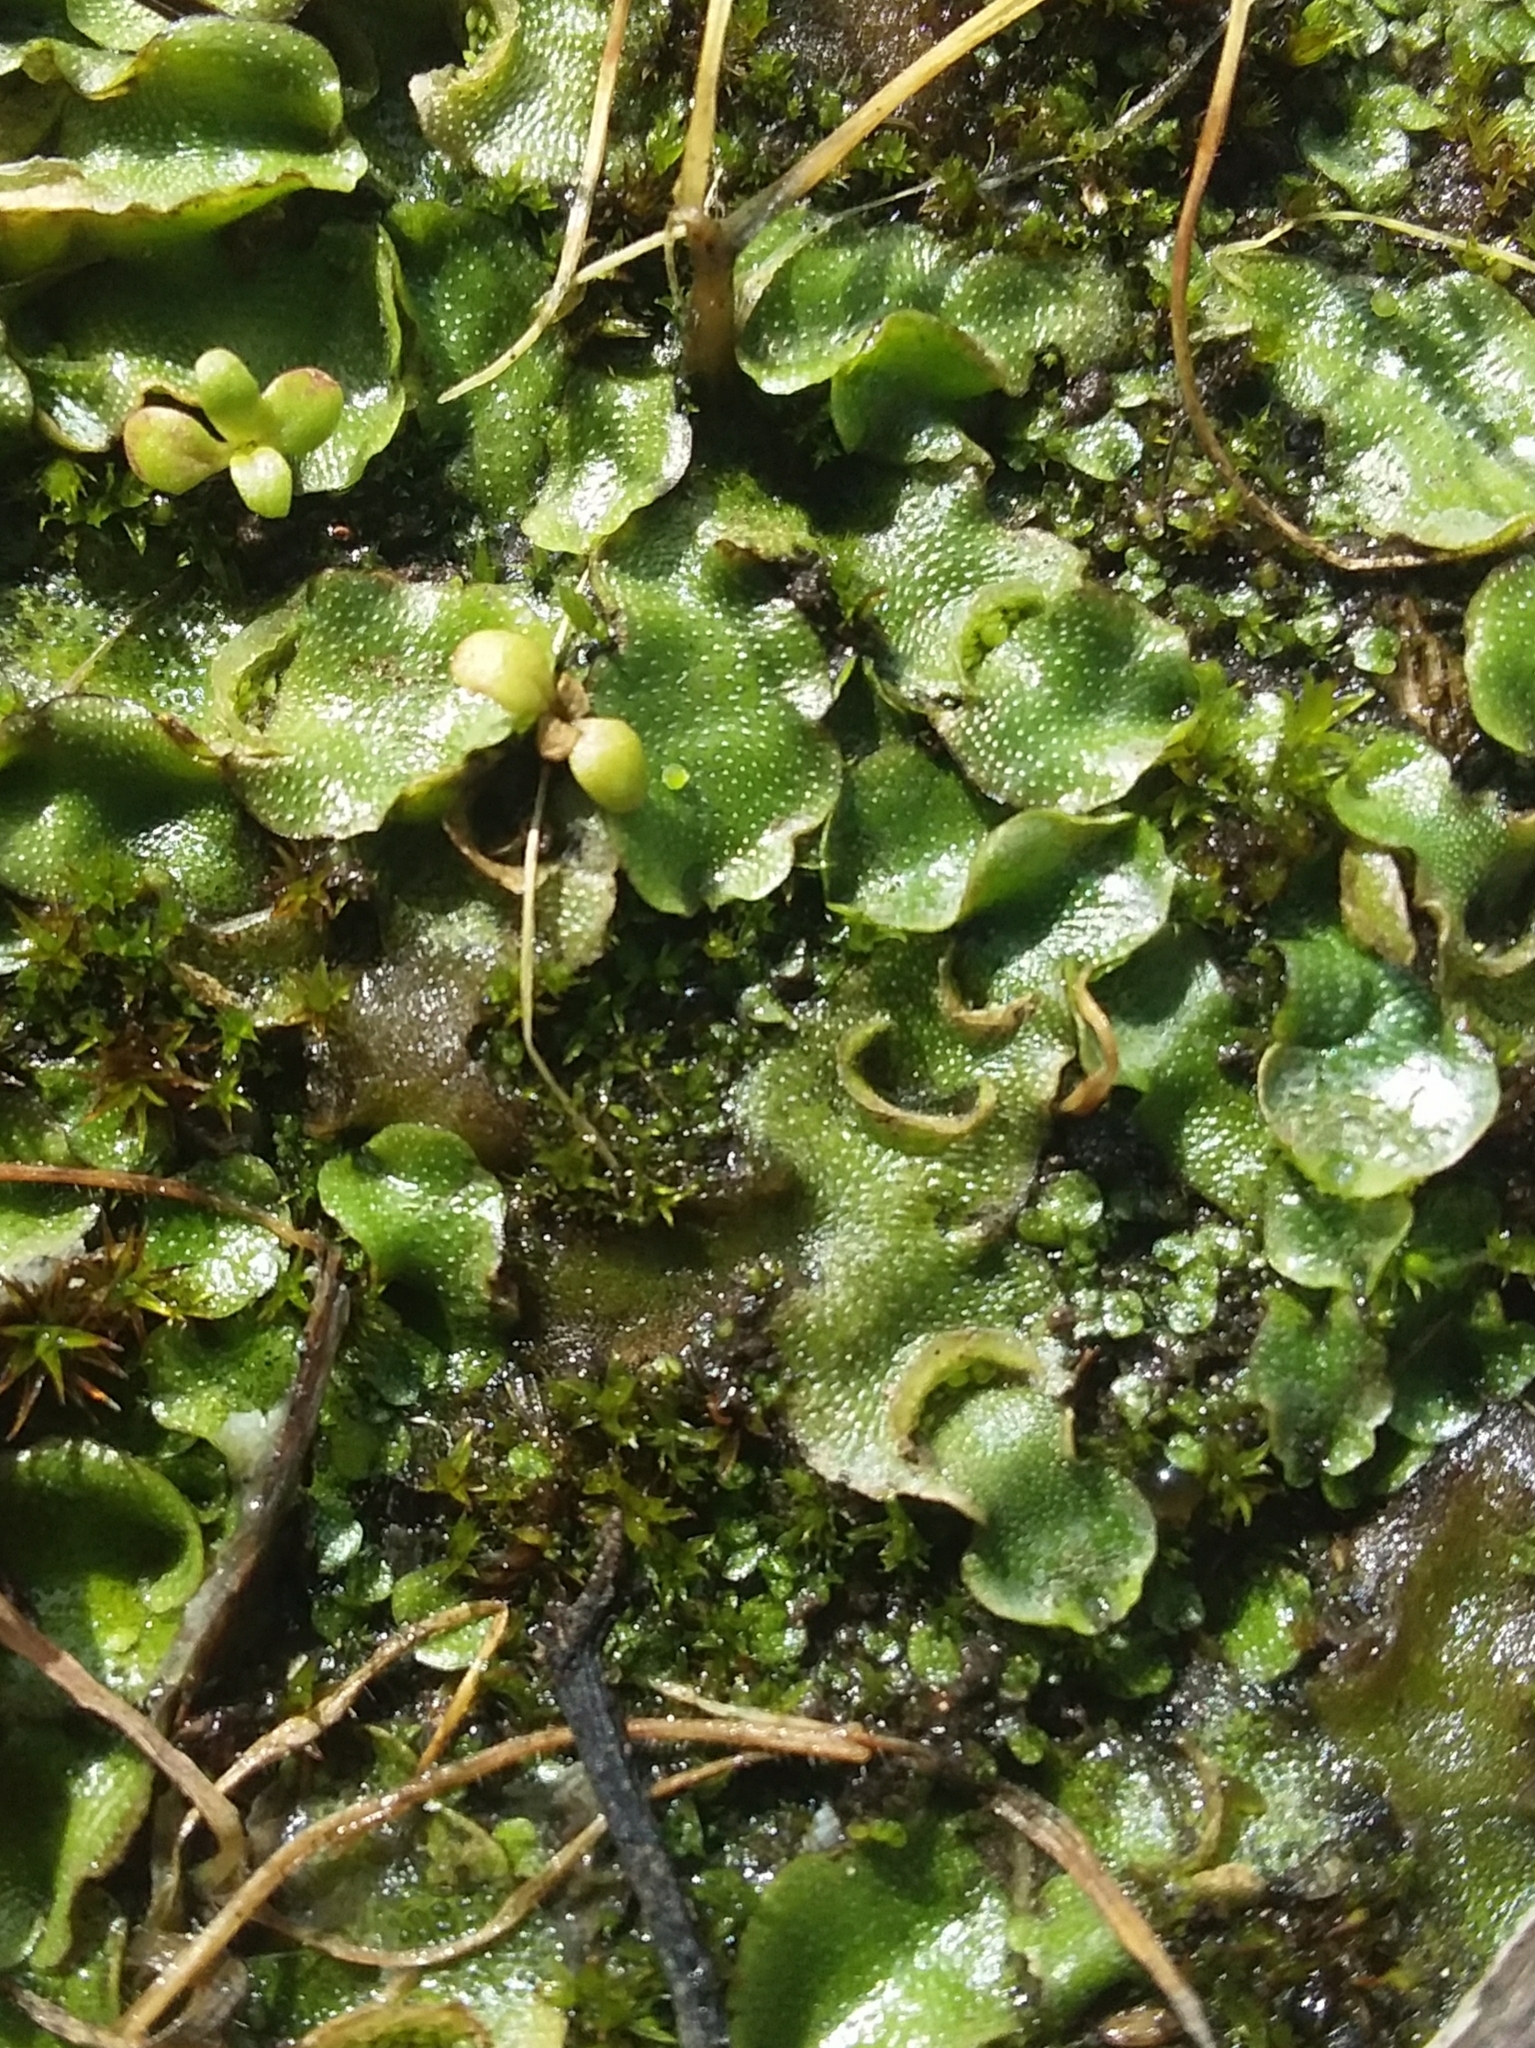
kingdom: Plantae
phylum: Marchantiophyta
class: Marchantiopsida
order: Lunulariales
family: Lunulariaceae
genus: Lunularia
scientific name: Lunularia cruciata
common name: Crescent-cup liverwort
